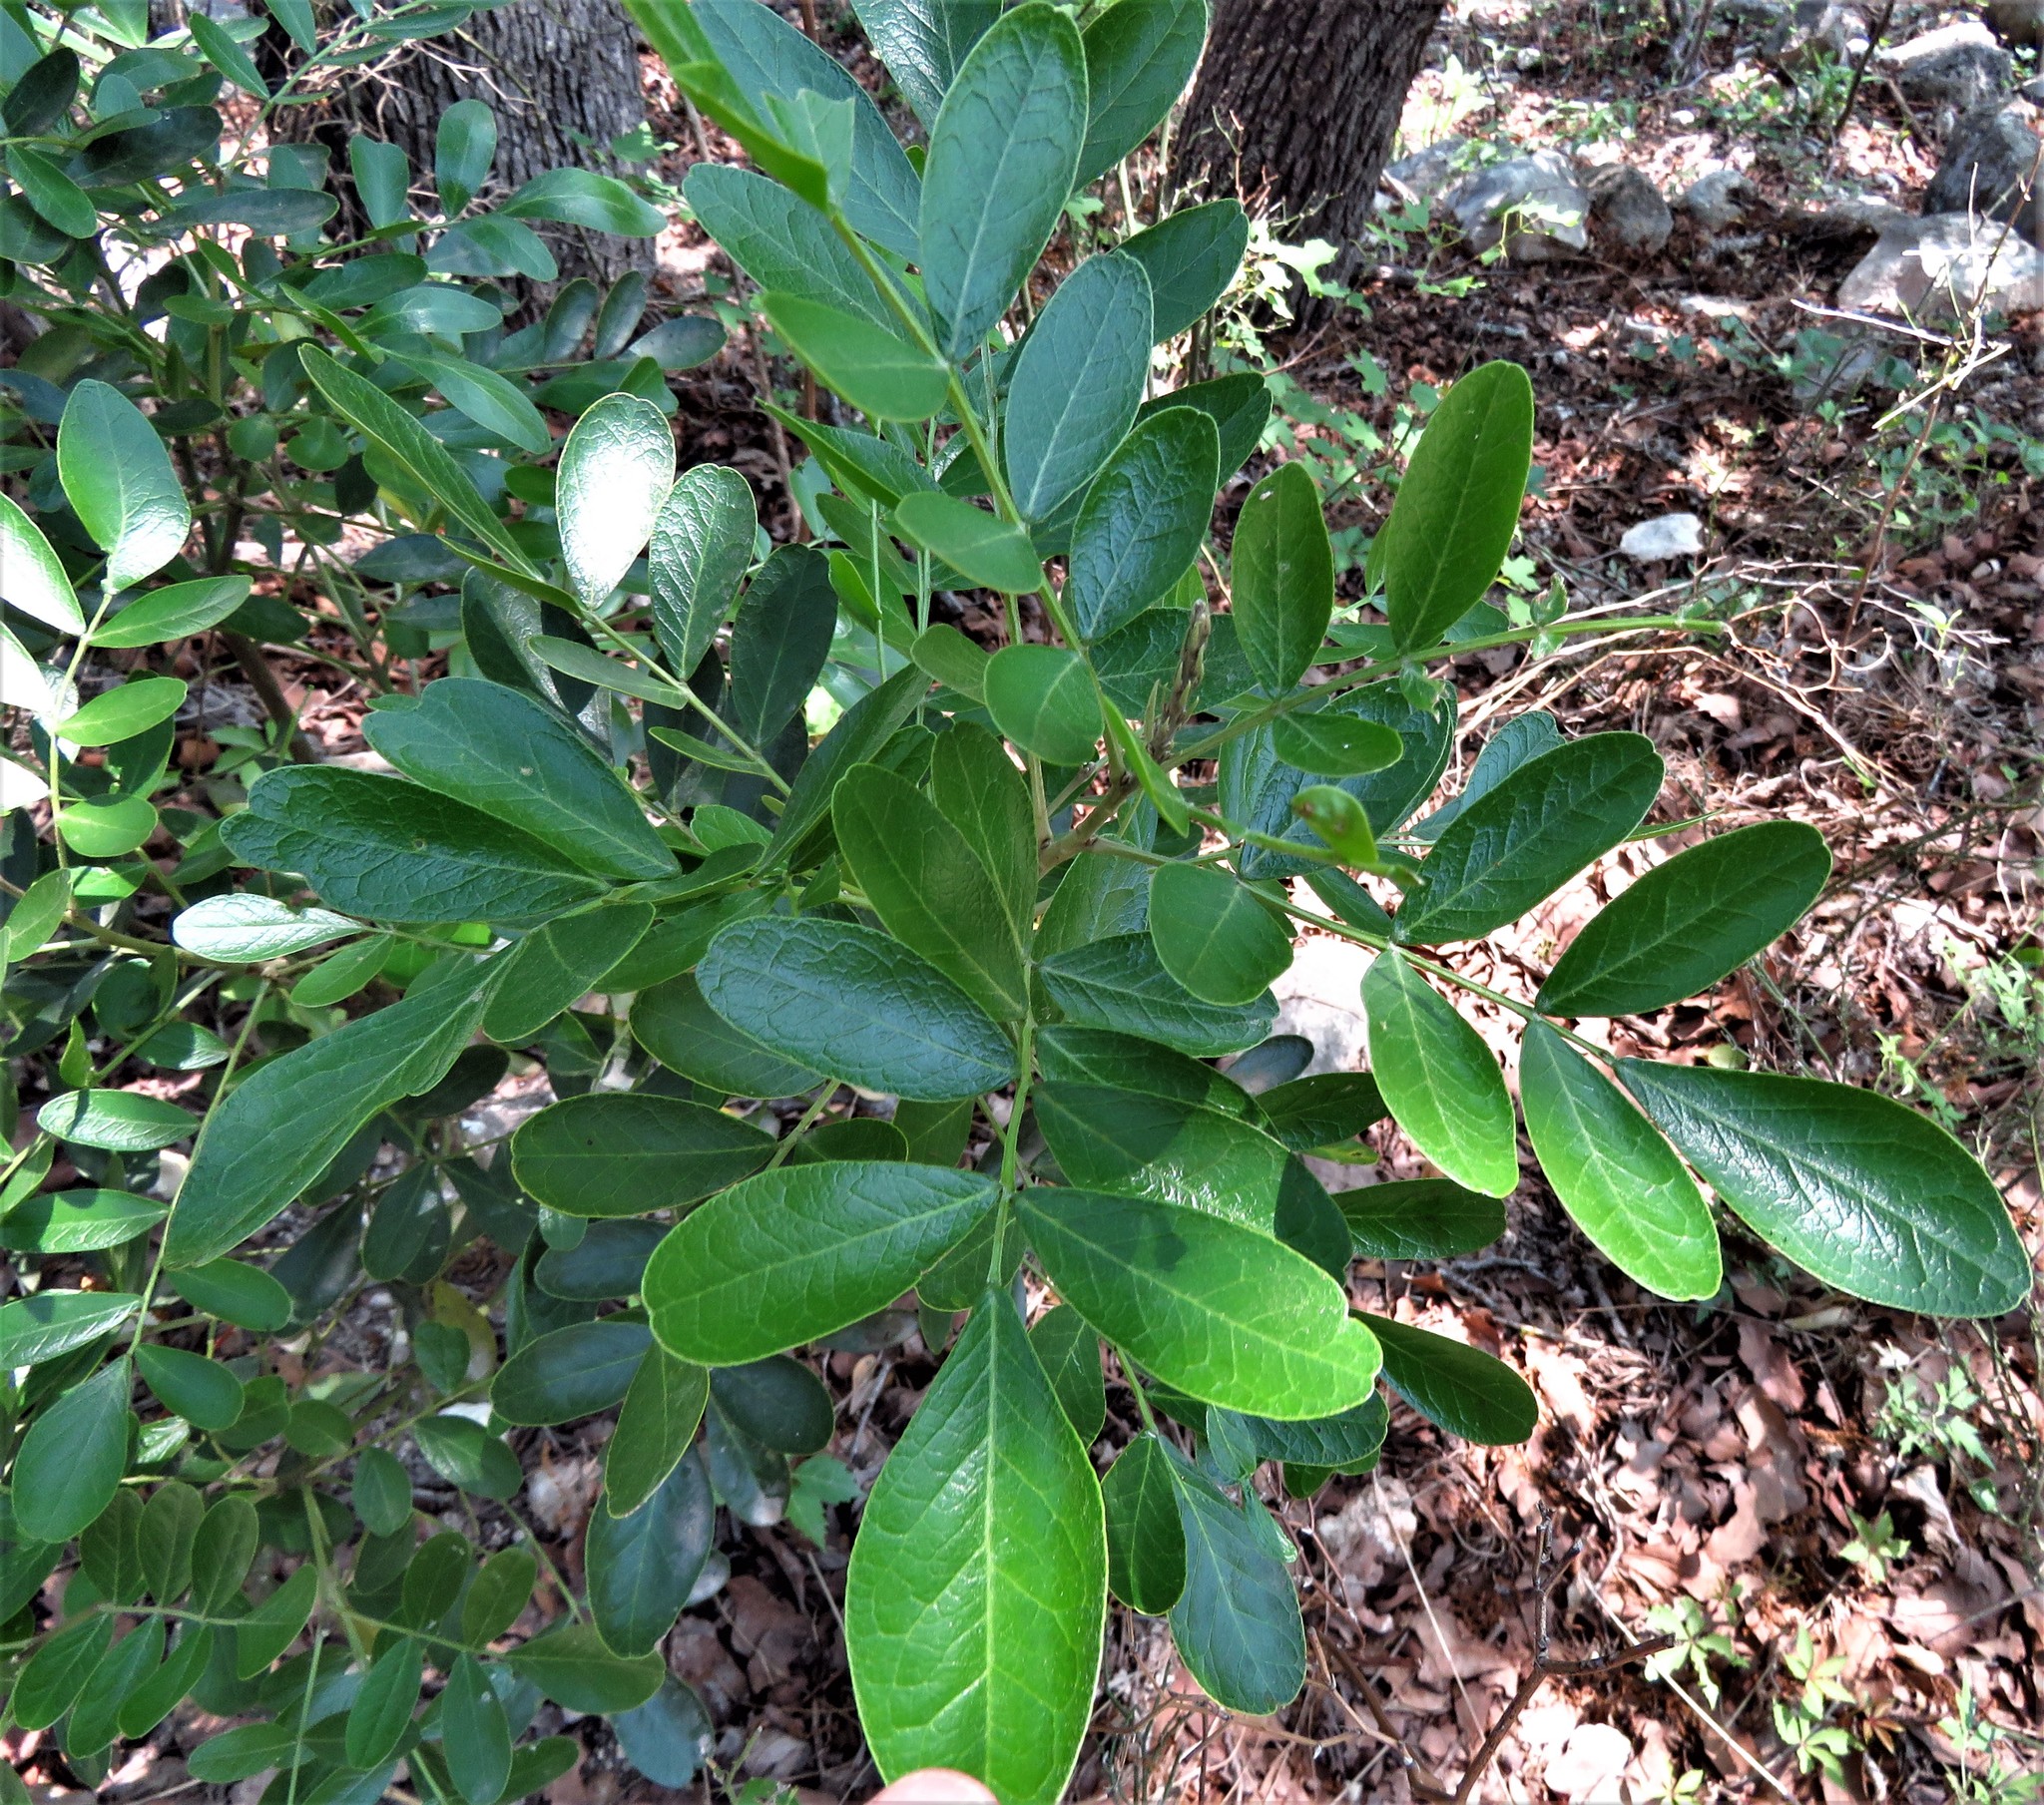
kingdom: Plantae
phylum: Tracheophyta
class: Magnoliopsida
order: Fabales
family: Fabaceae
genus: Dermatophyllum
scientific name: Dermatophyllum secundiflorum
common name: Texas-mountain-laurel
